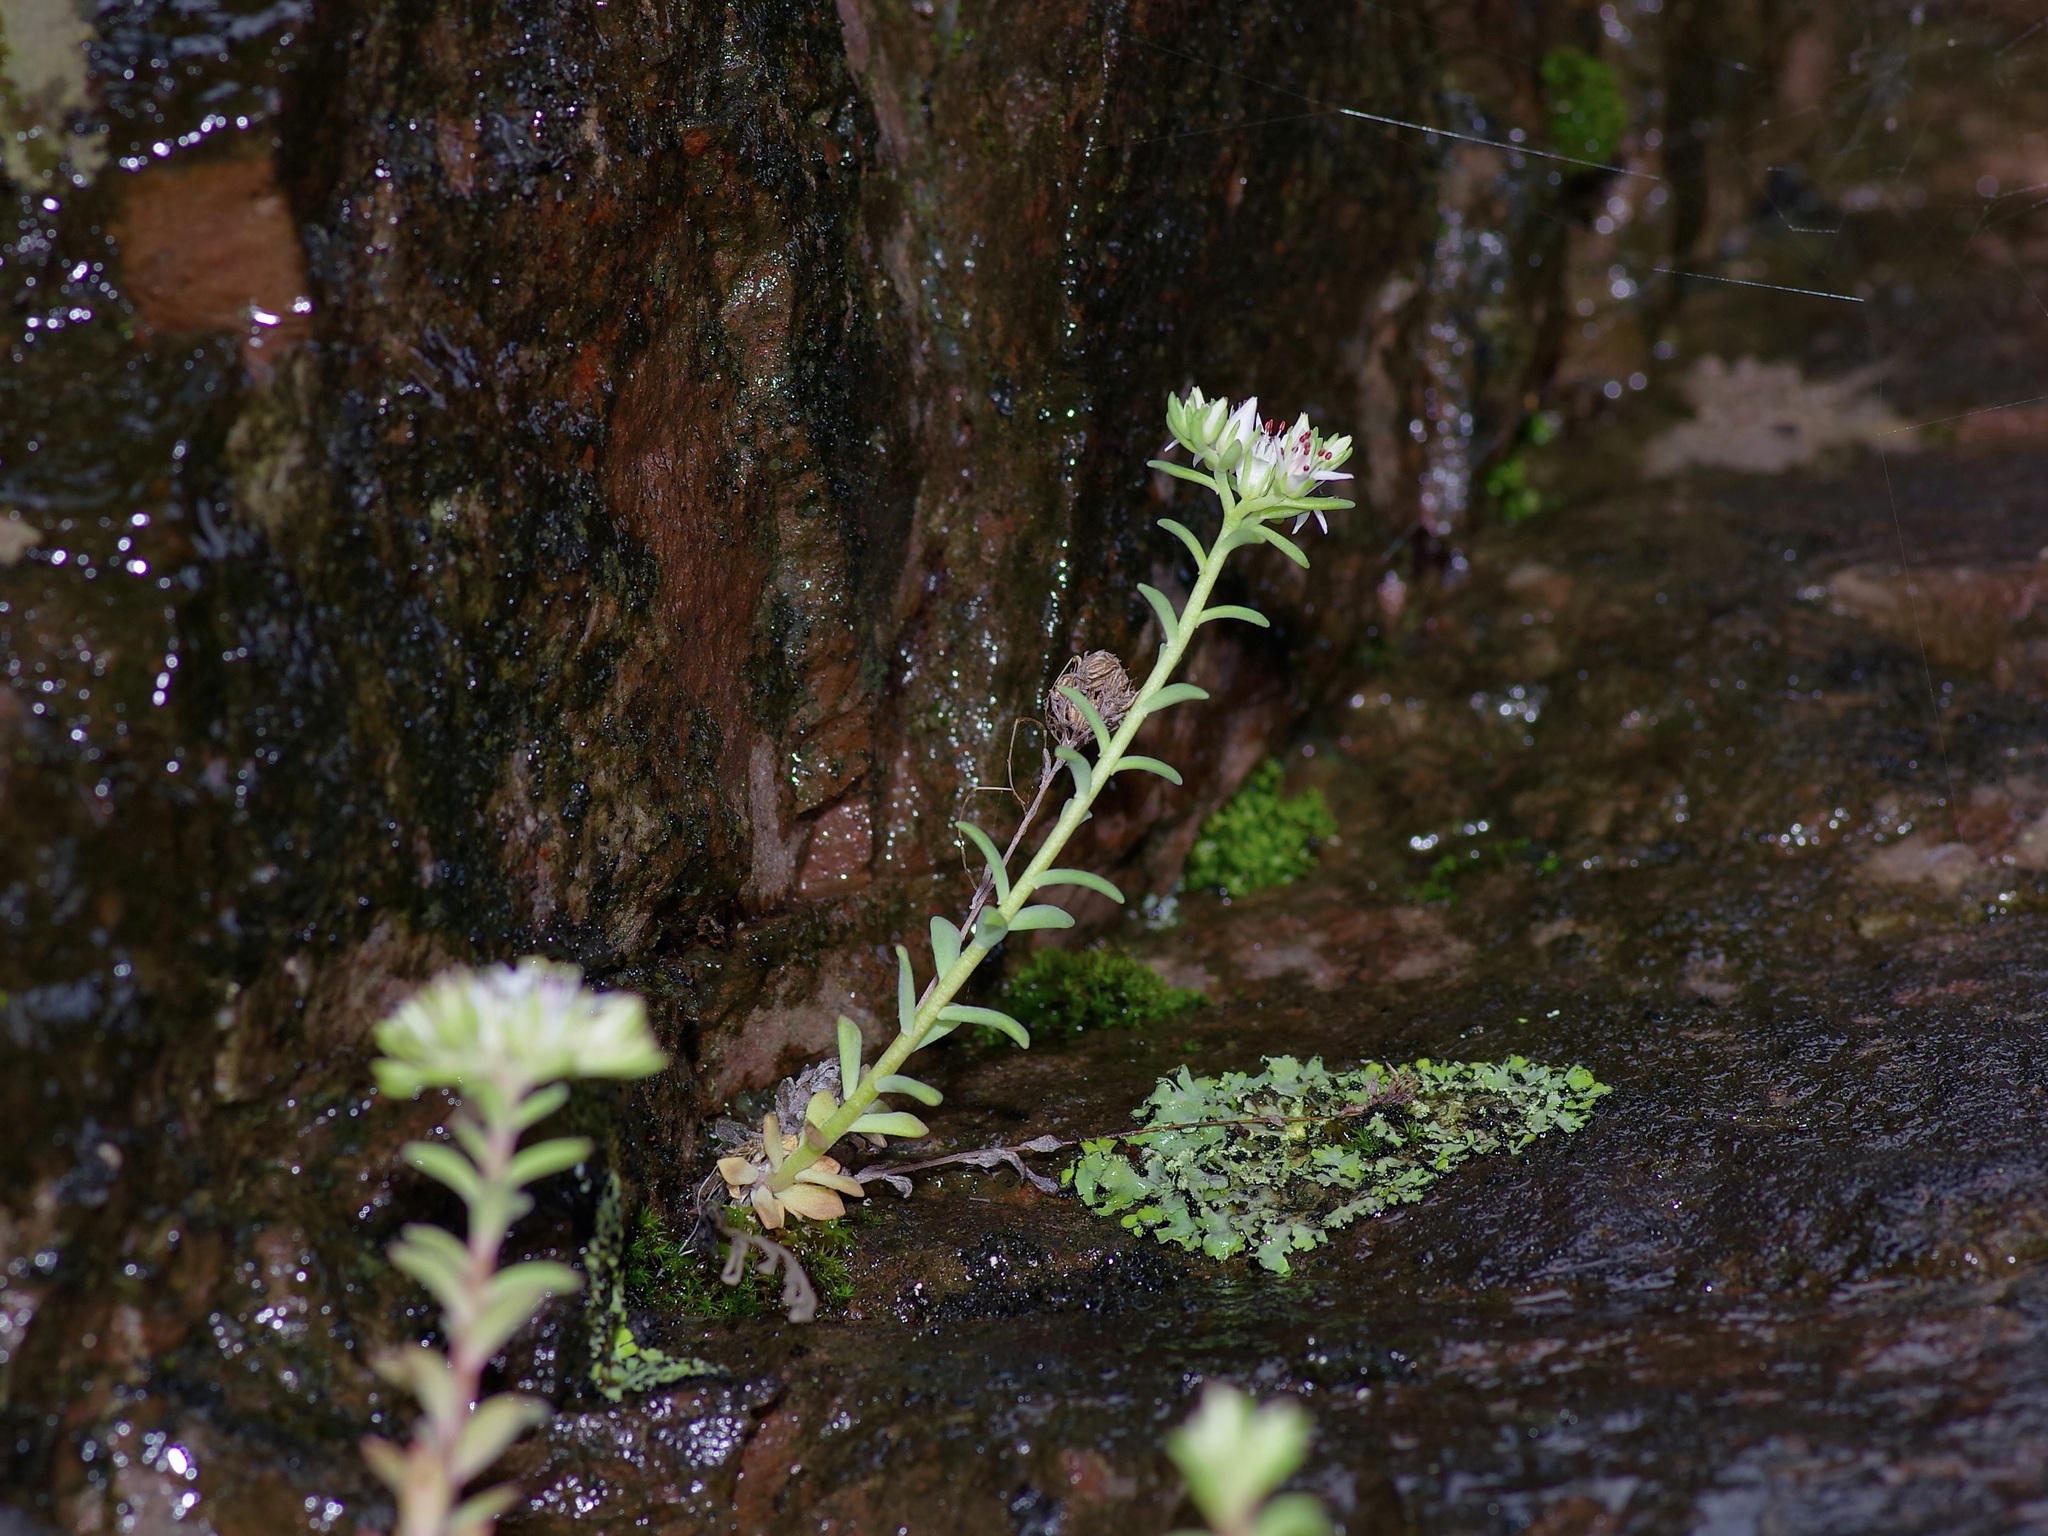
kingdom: Plantae
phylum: Tracheophyta
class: Magnoliopsida
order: Saxifragales
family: Crassulaceae
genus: Sedum
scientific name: Sedum cockerellii
